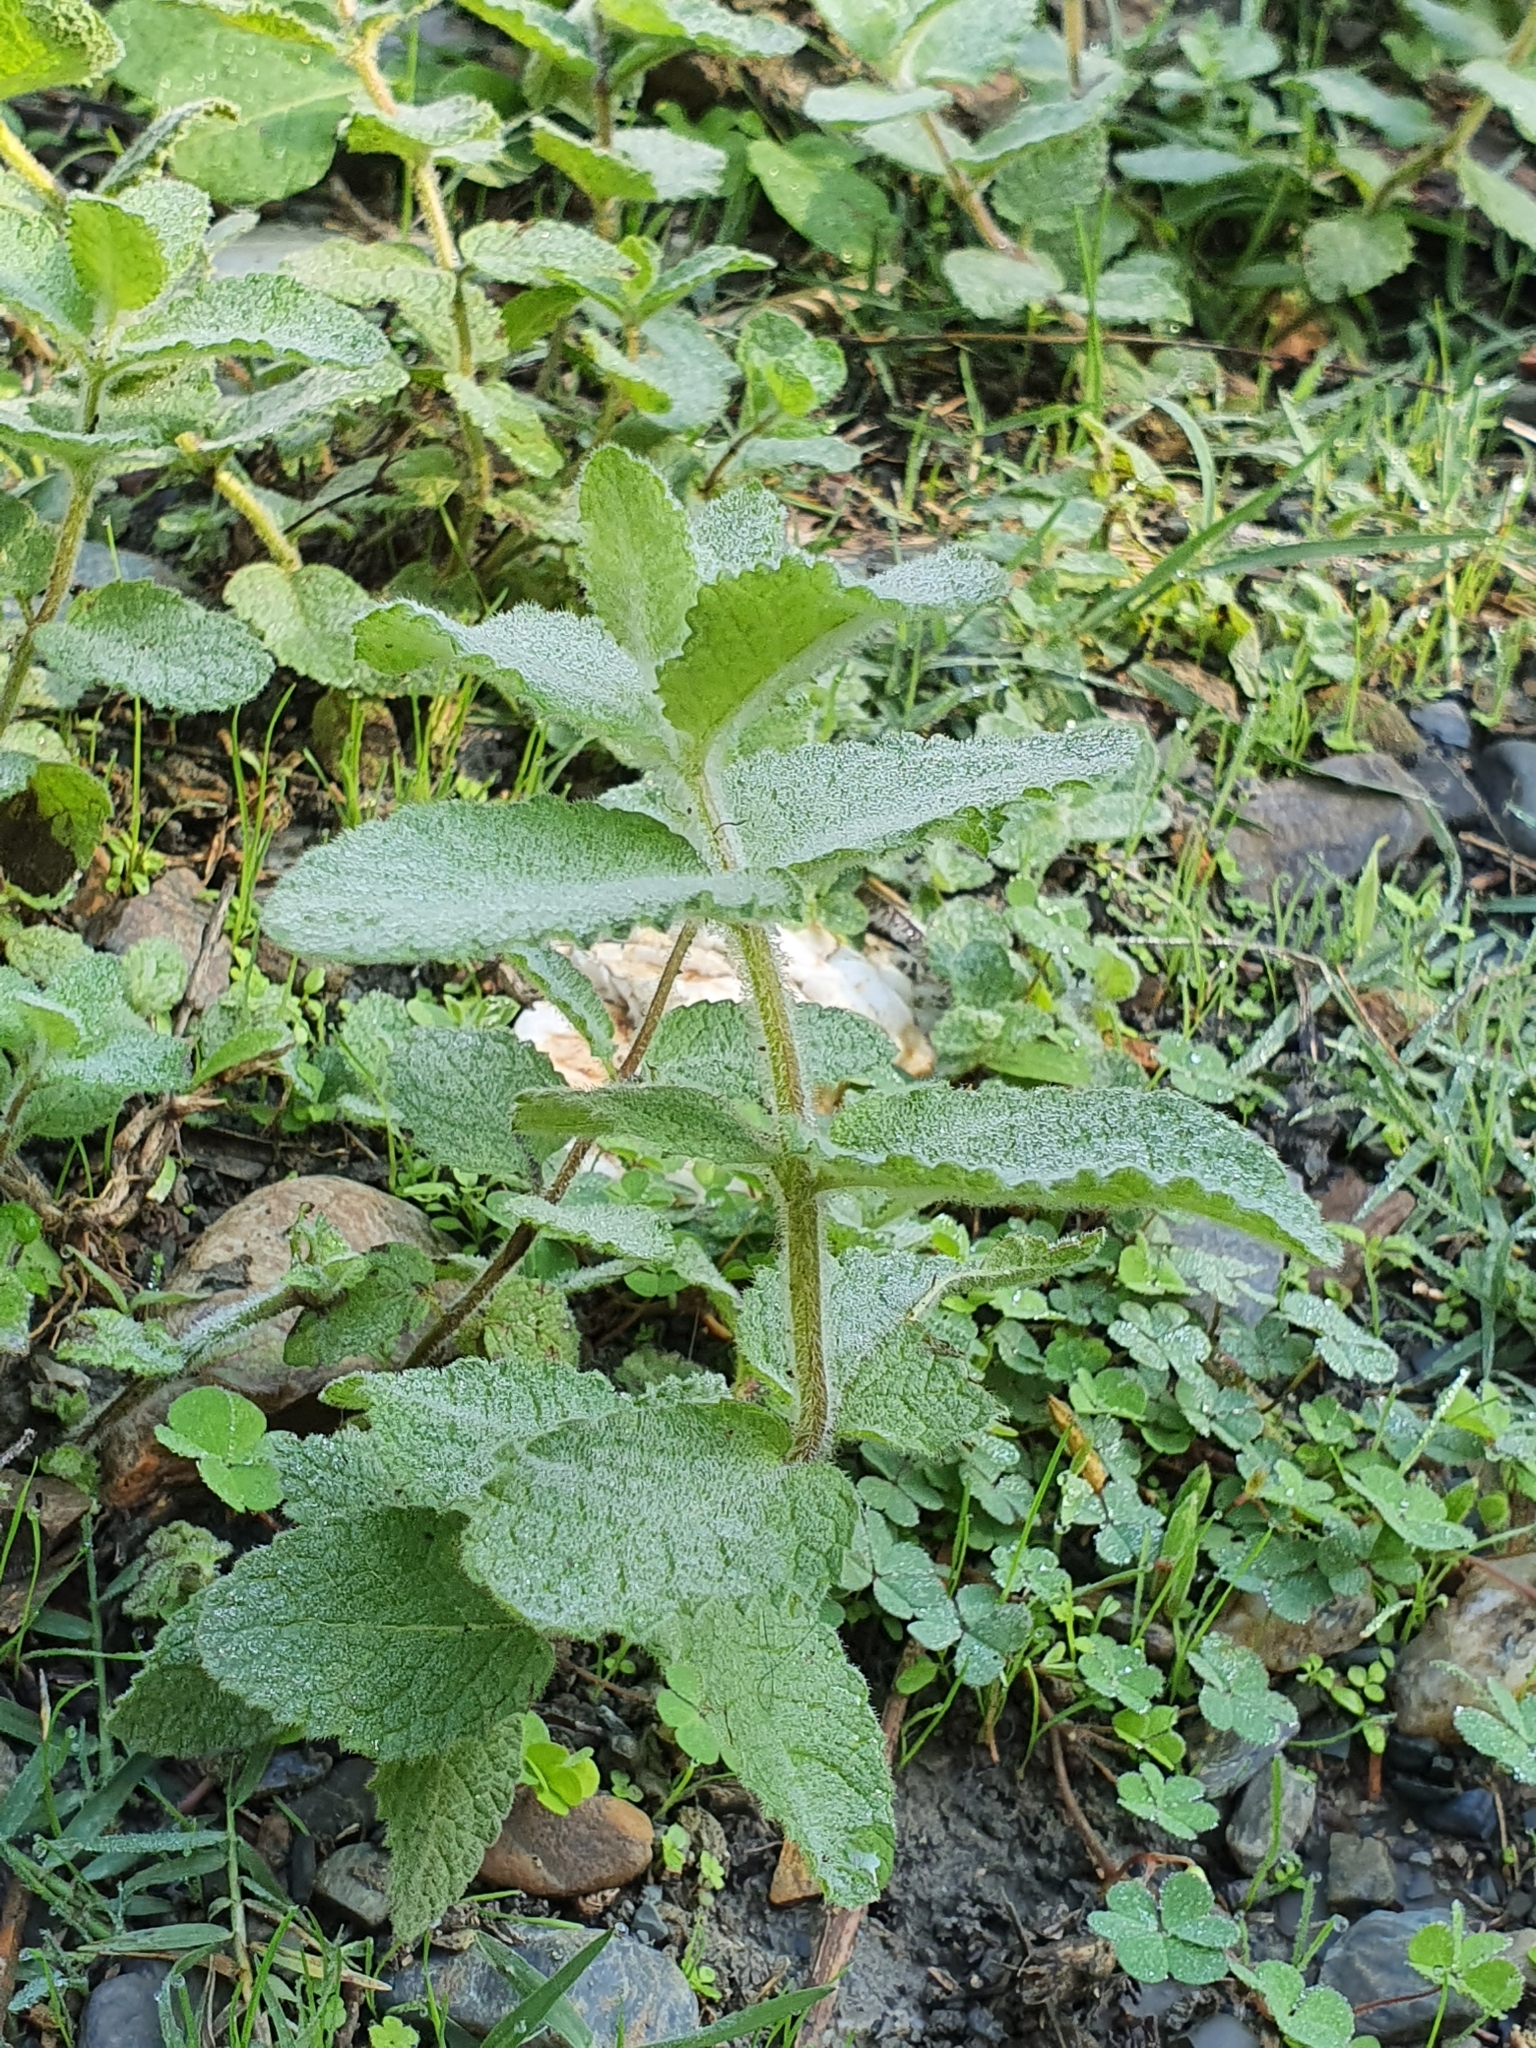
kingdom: Plantae
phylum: Tracheophyta
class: Magnoliopsida
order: Lamiales
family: Lamiaceae
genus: Mentha
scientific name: Mentha suaveolens
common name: Apple mint
